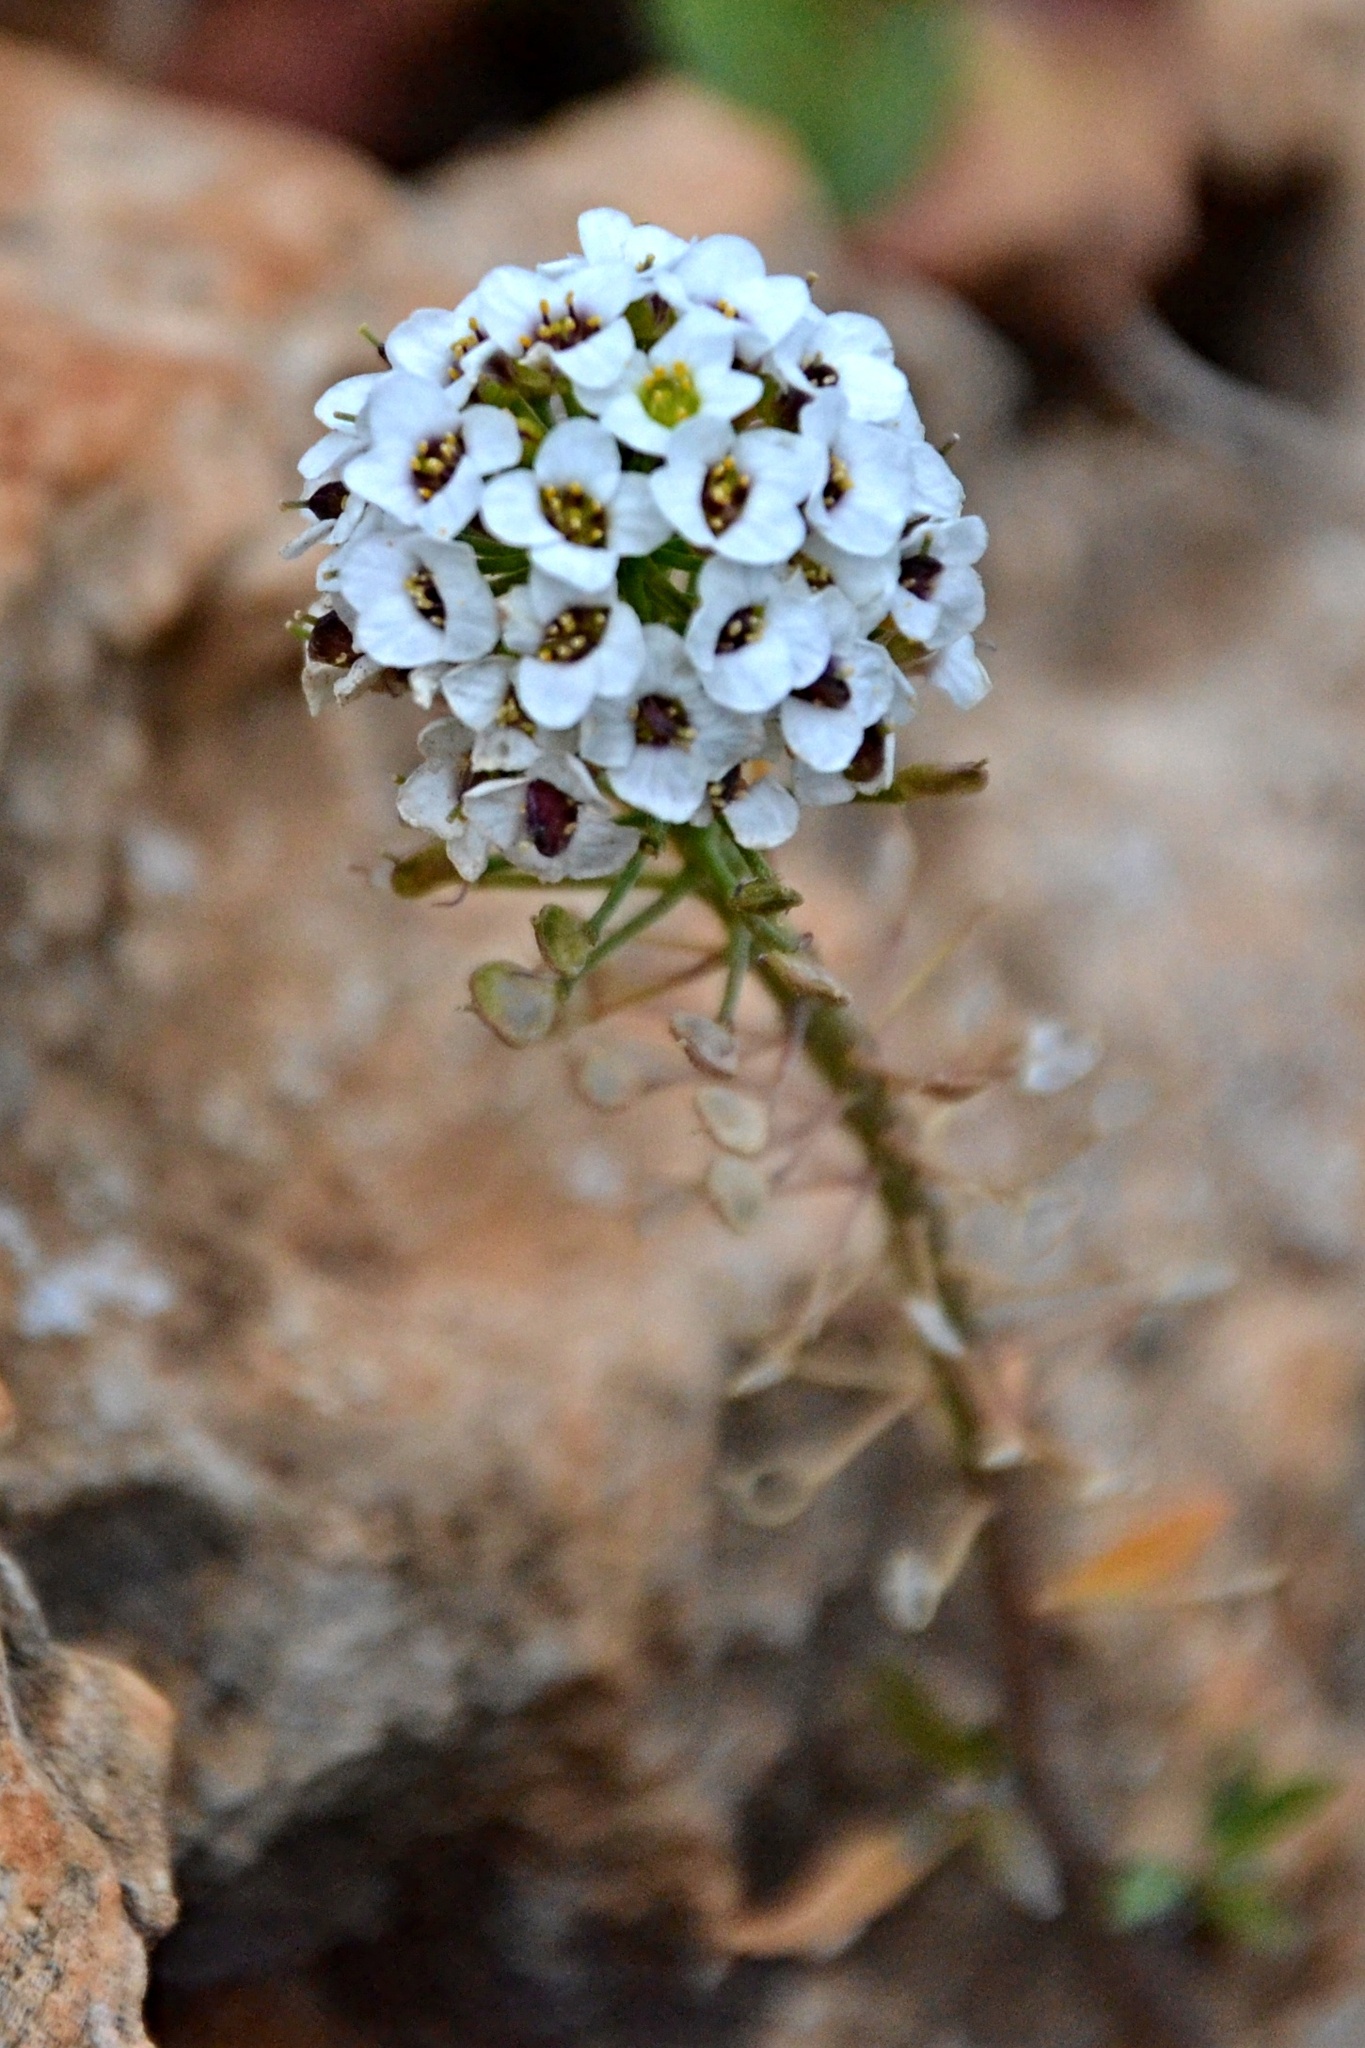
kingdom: Plantae
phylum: Tracheophyta
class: Magnoliopsida
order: Brassicales
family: Brassicaceae
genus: Lobularia
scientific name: Lobularia maritima
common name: Sweet alison
